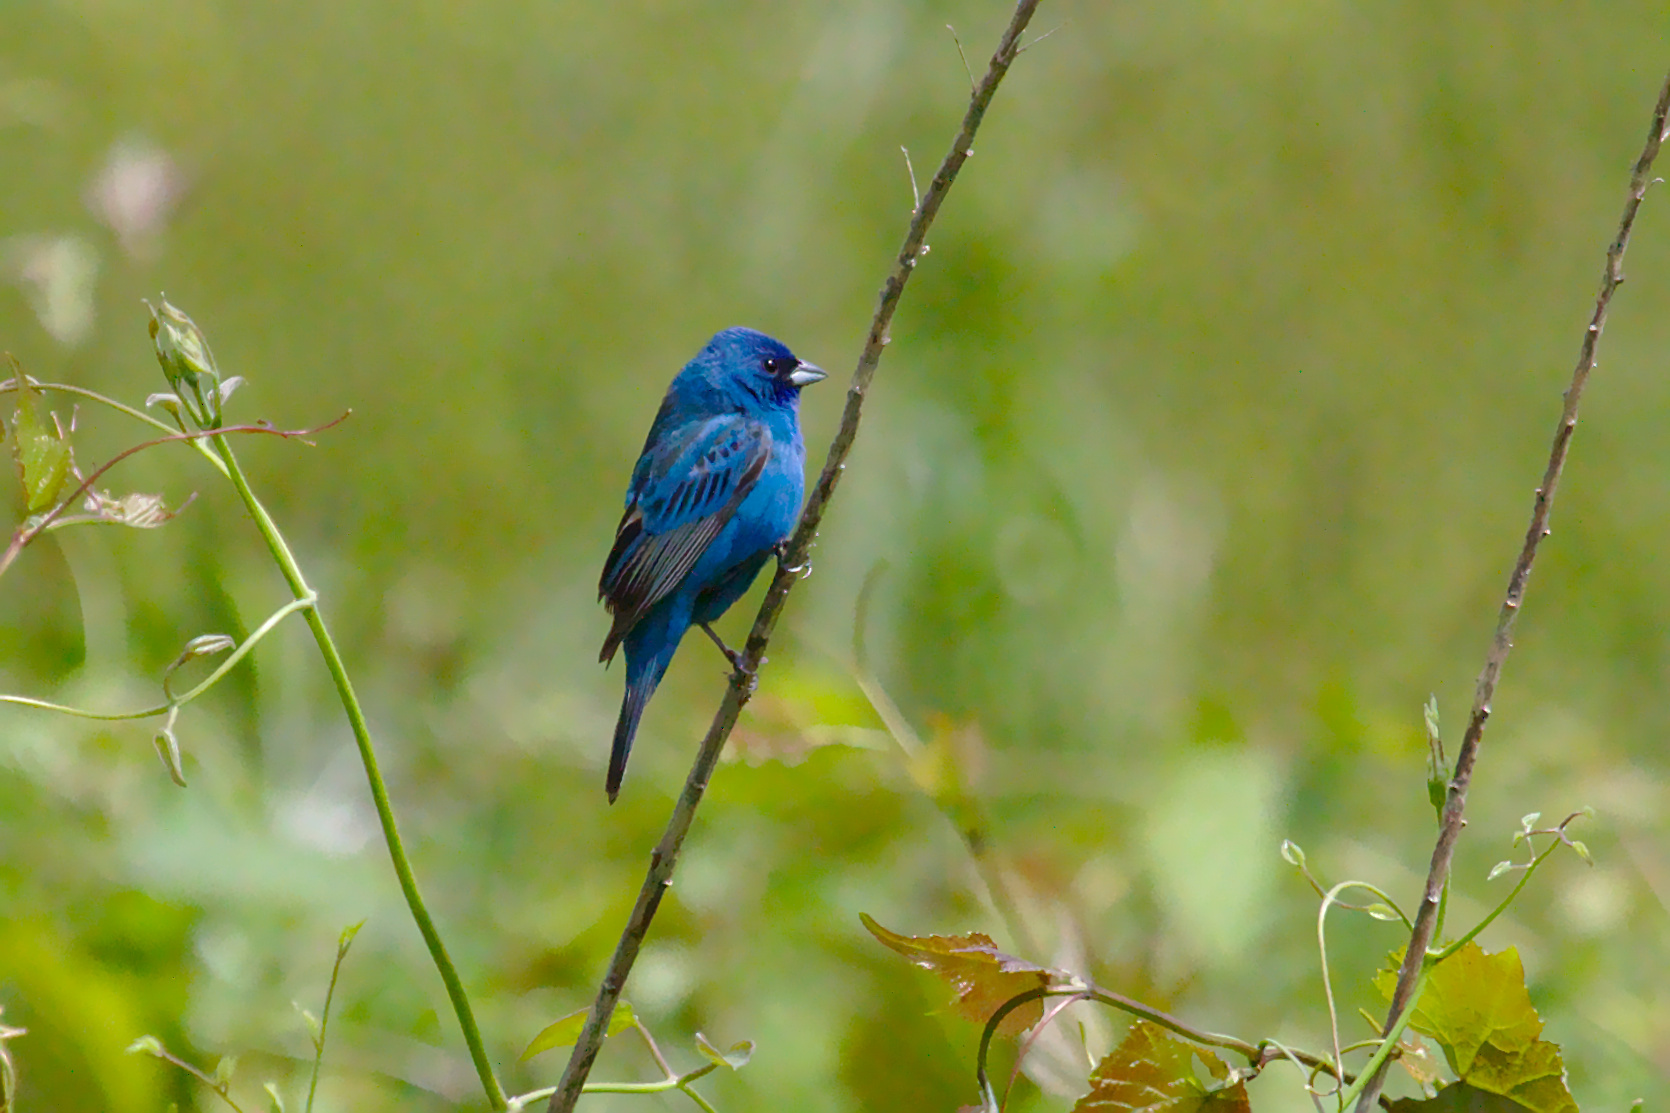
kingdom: Animalia
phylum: Chordata
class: Aves
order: Passeriformes
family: Cardinalidae
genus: Passerina
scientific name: Passerina cyanea
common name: Indigo bunting
